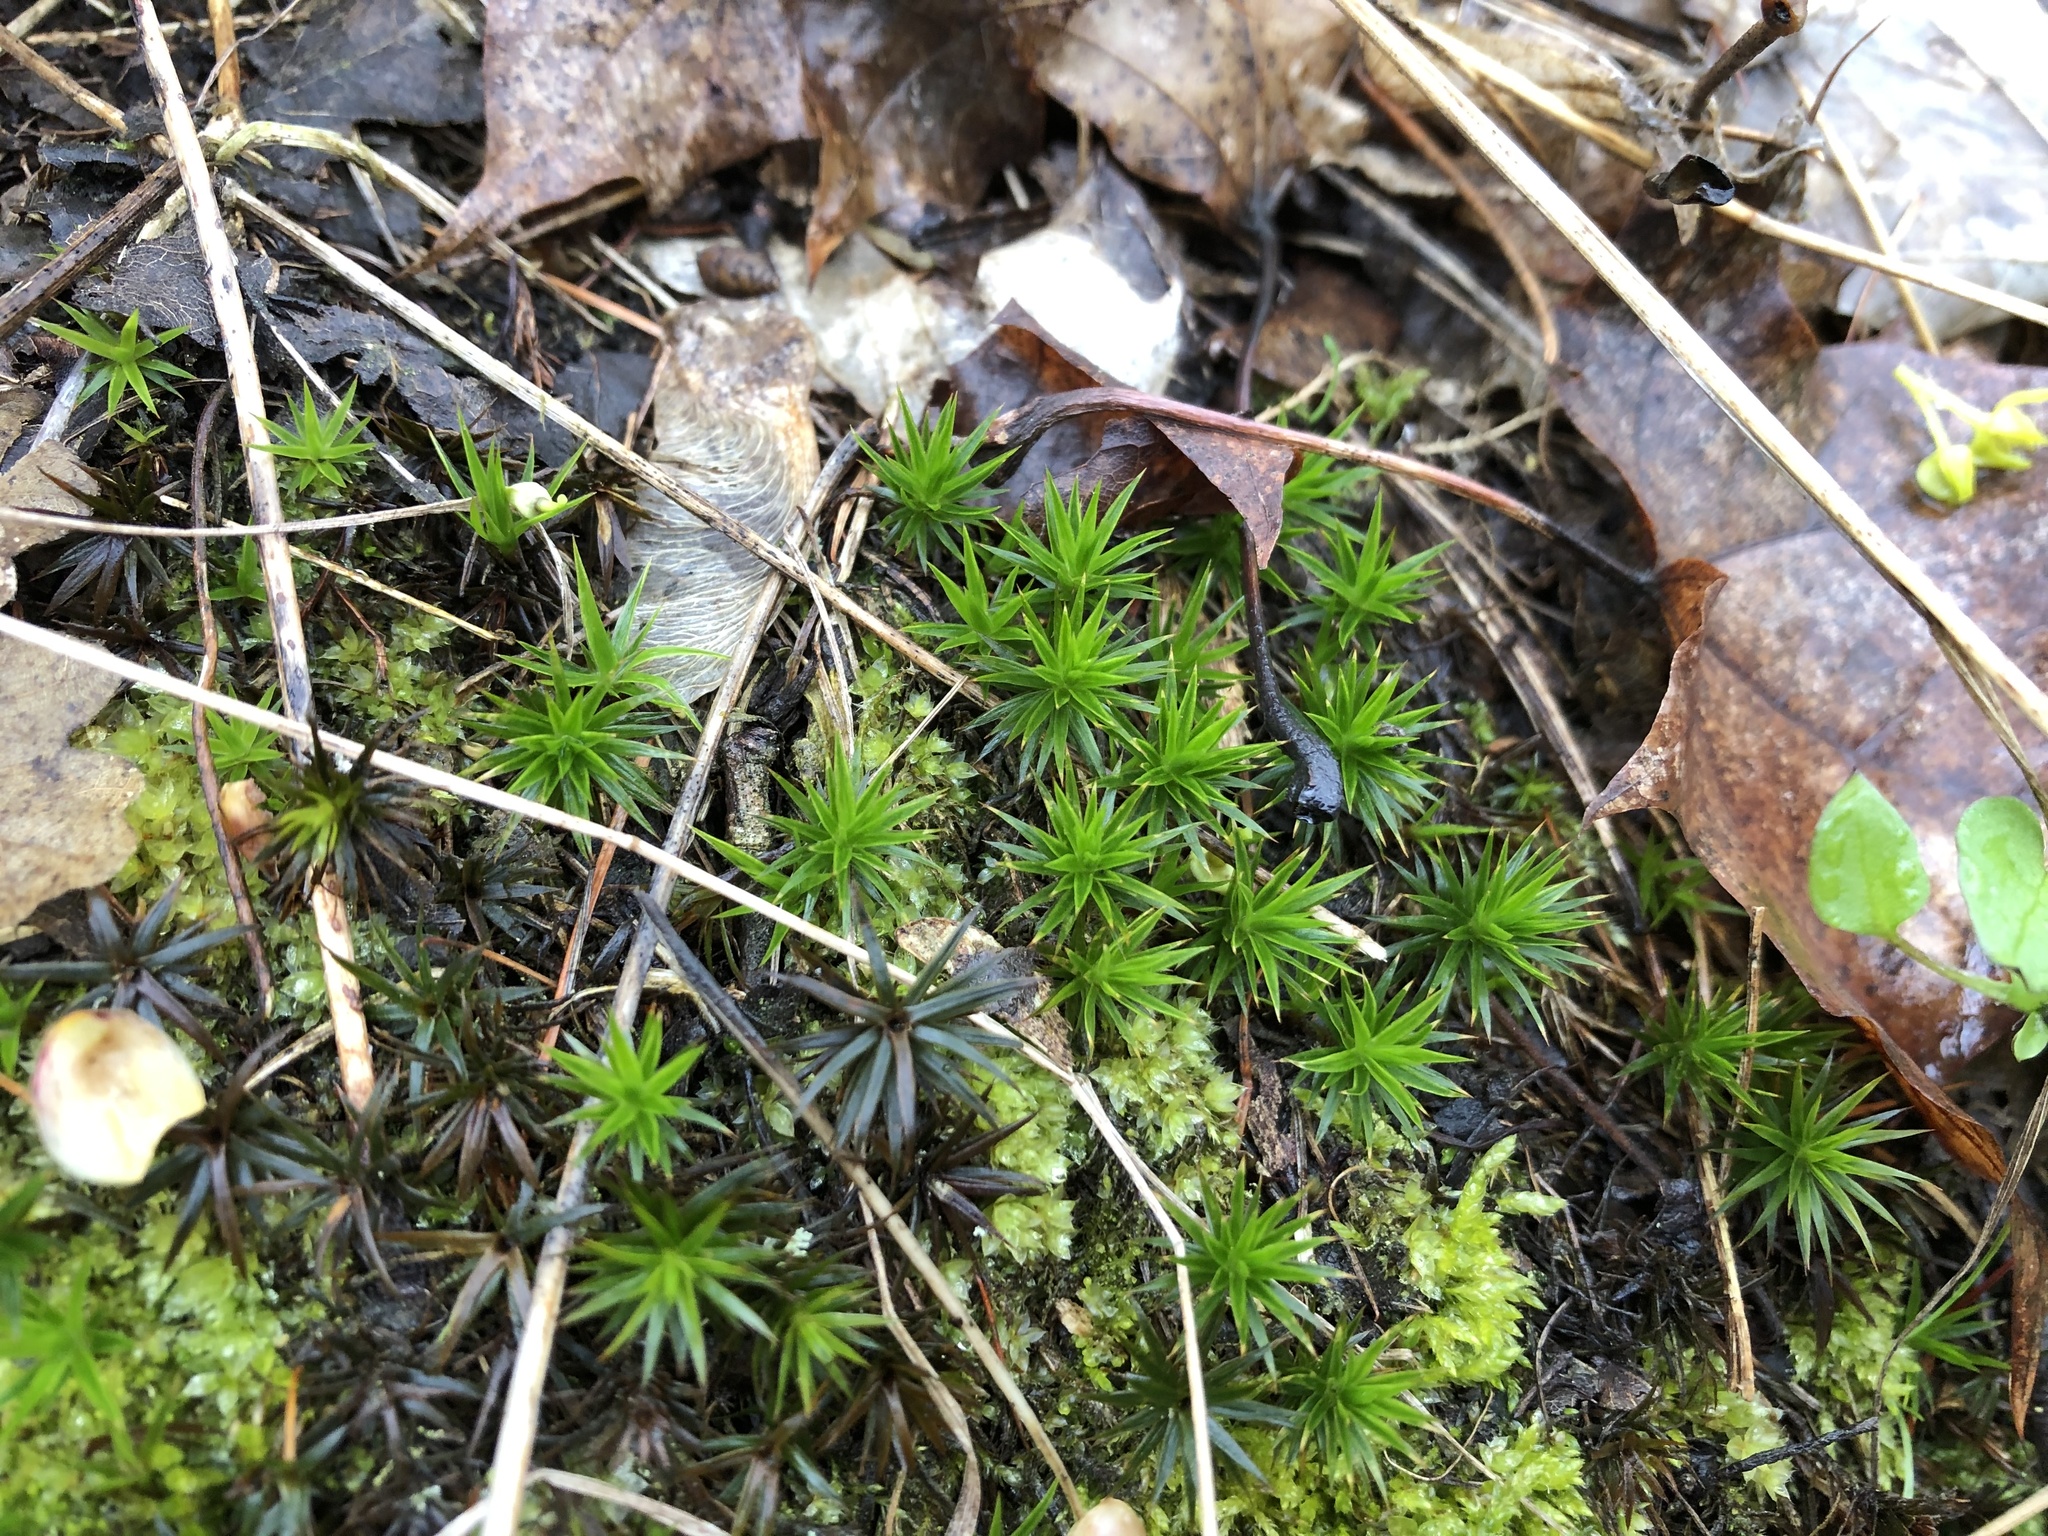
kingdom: Plantae
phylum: Bryophyta
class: Polytrichopsida
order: Polytrichales
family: Polytrichaceae
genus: Polytrichum
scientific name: Polytrichum formosum
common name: Bank haircap moss
